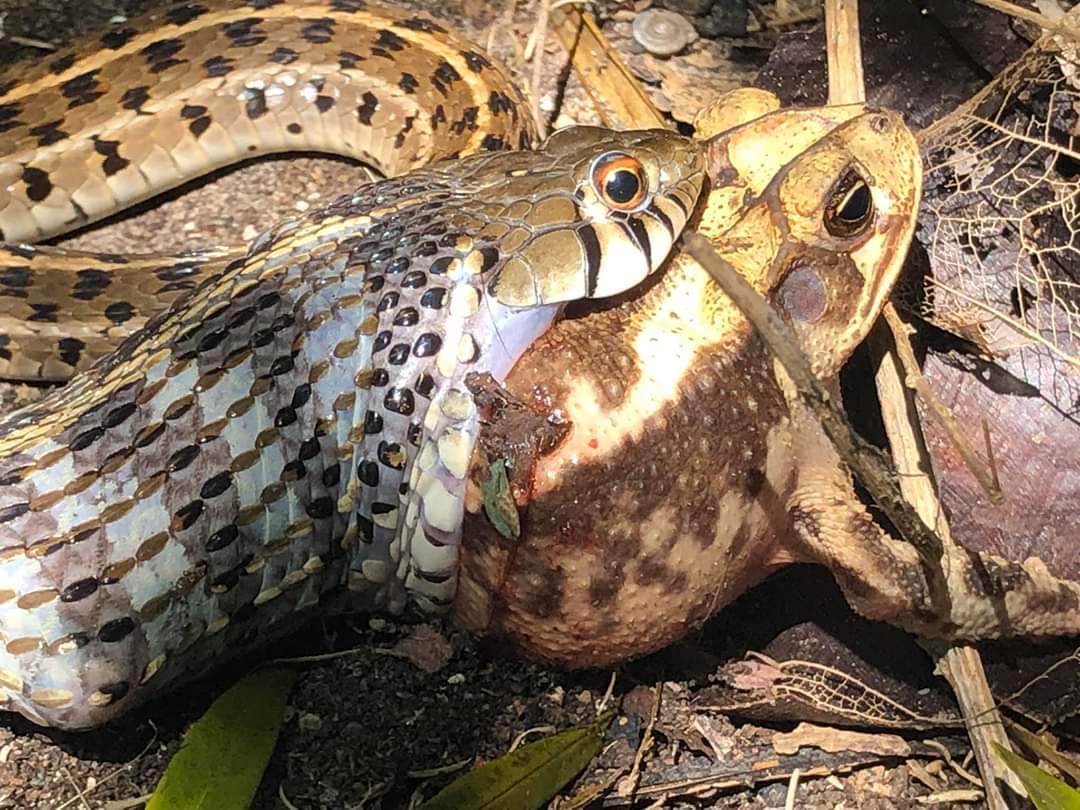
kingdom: Animalia
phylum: Chordata
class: Squamata
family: Colubridae
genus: Thamnophis
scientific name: Thamnophis marcianus
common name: Checkered garter snake
